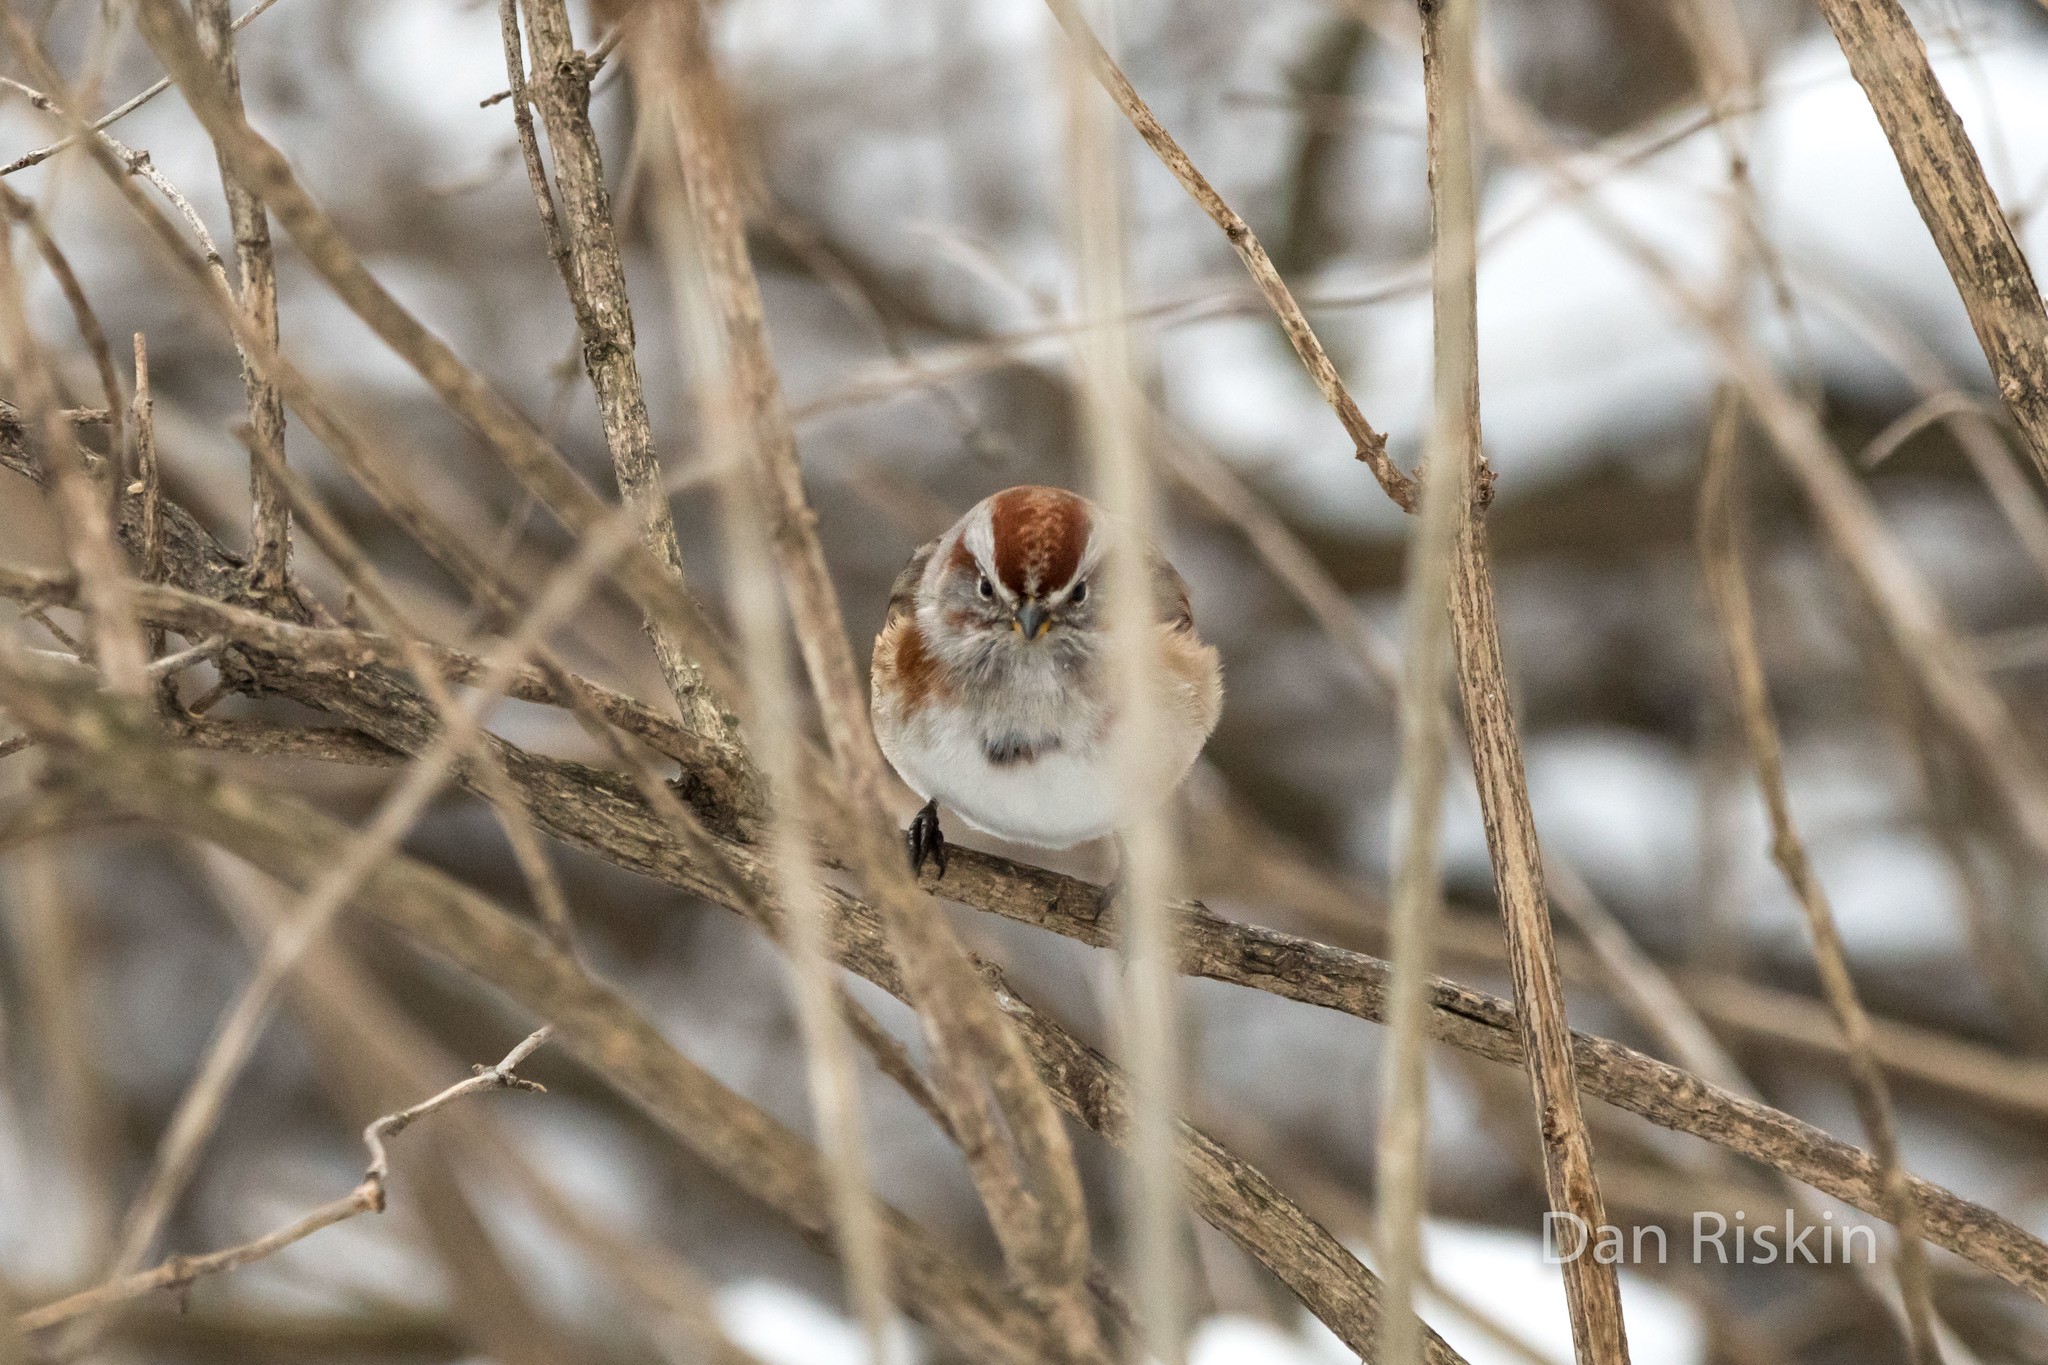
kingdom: Animalia
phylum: Chordata
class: Aves
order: Passeriformes
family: Passerellidae
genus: Spizelloides
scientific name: Spizelloides arborea
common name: American tree sparrow
